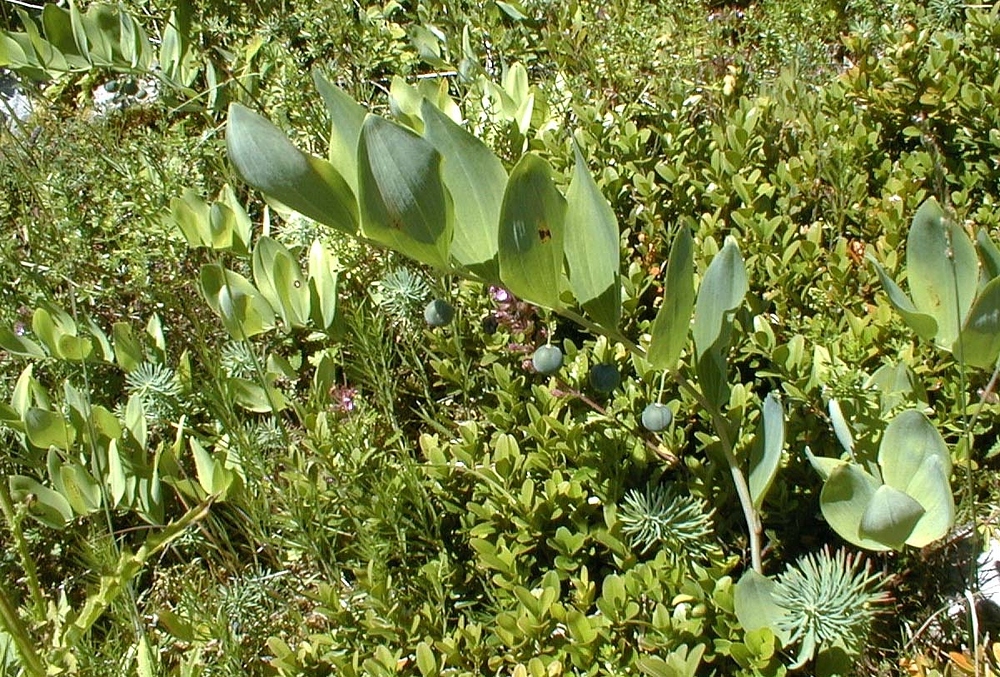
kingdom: Plantae
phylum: Tracheophyta
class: Liliopsida
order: Asparagales
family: Asparagaceae
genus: Polygonatum
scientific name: Polygonatum odoratum
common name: Angular solomon's-seal
